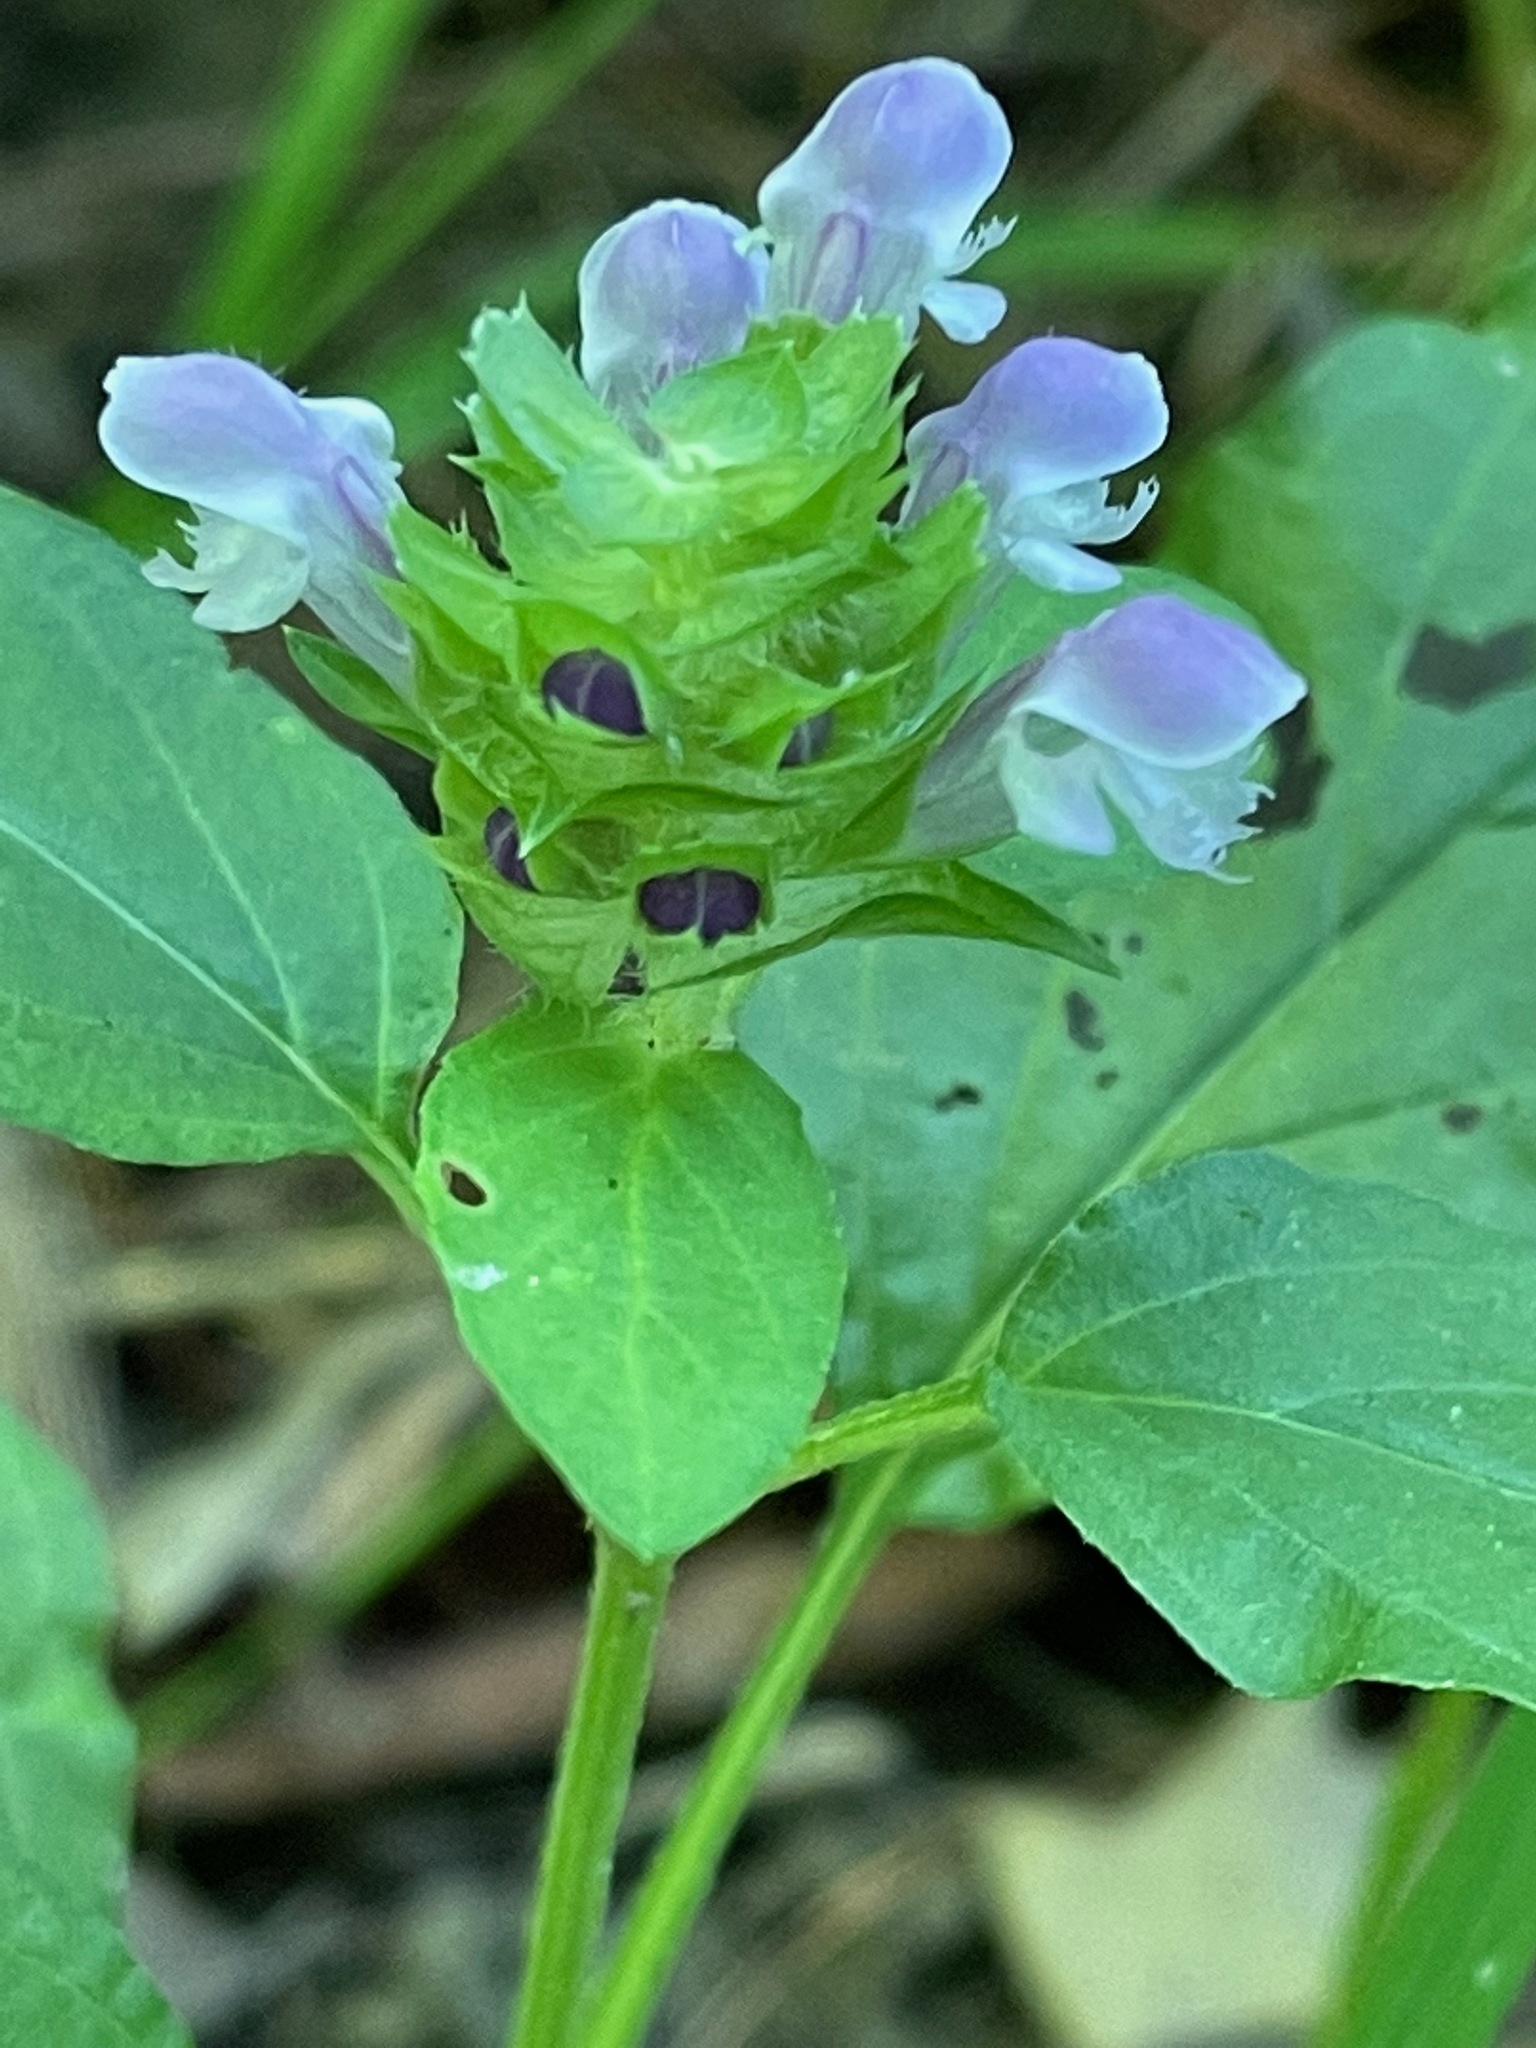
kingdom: Plantae
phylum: Tracheophyta
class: Magnoliopsida
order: Lamiales
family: Lamiaceae
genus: Prunella
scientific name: Prunella vulgaris
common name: Heal-all
